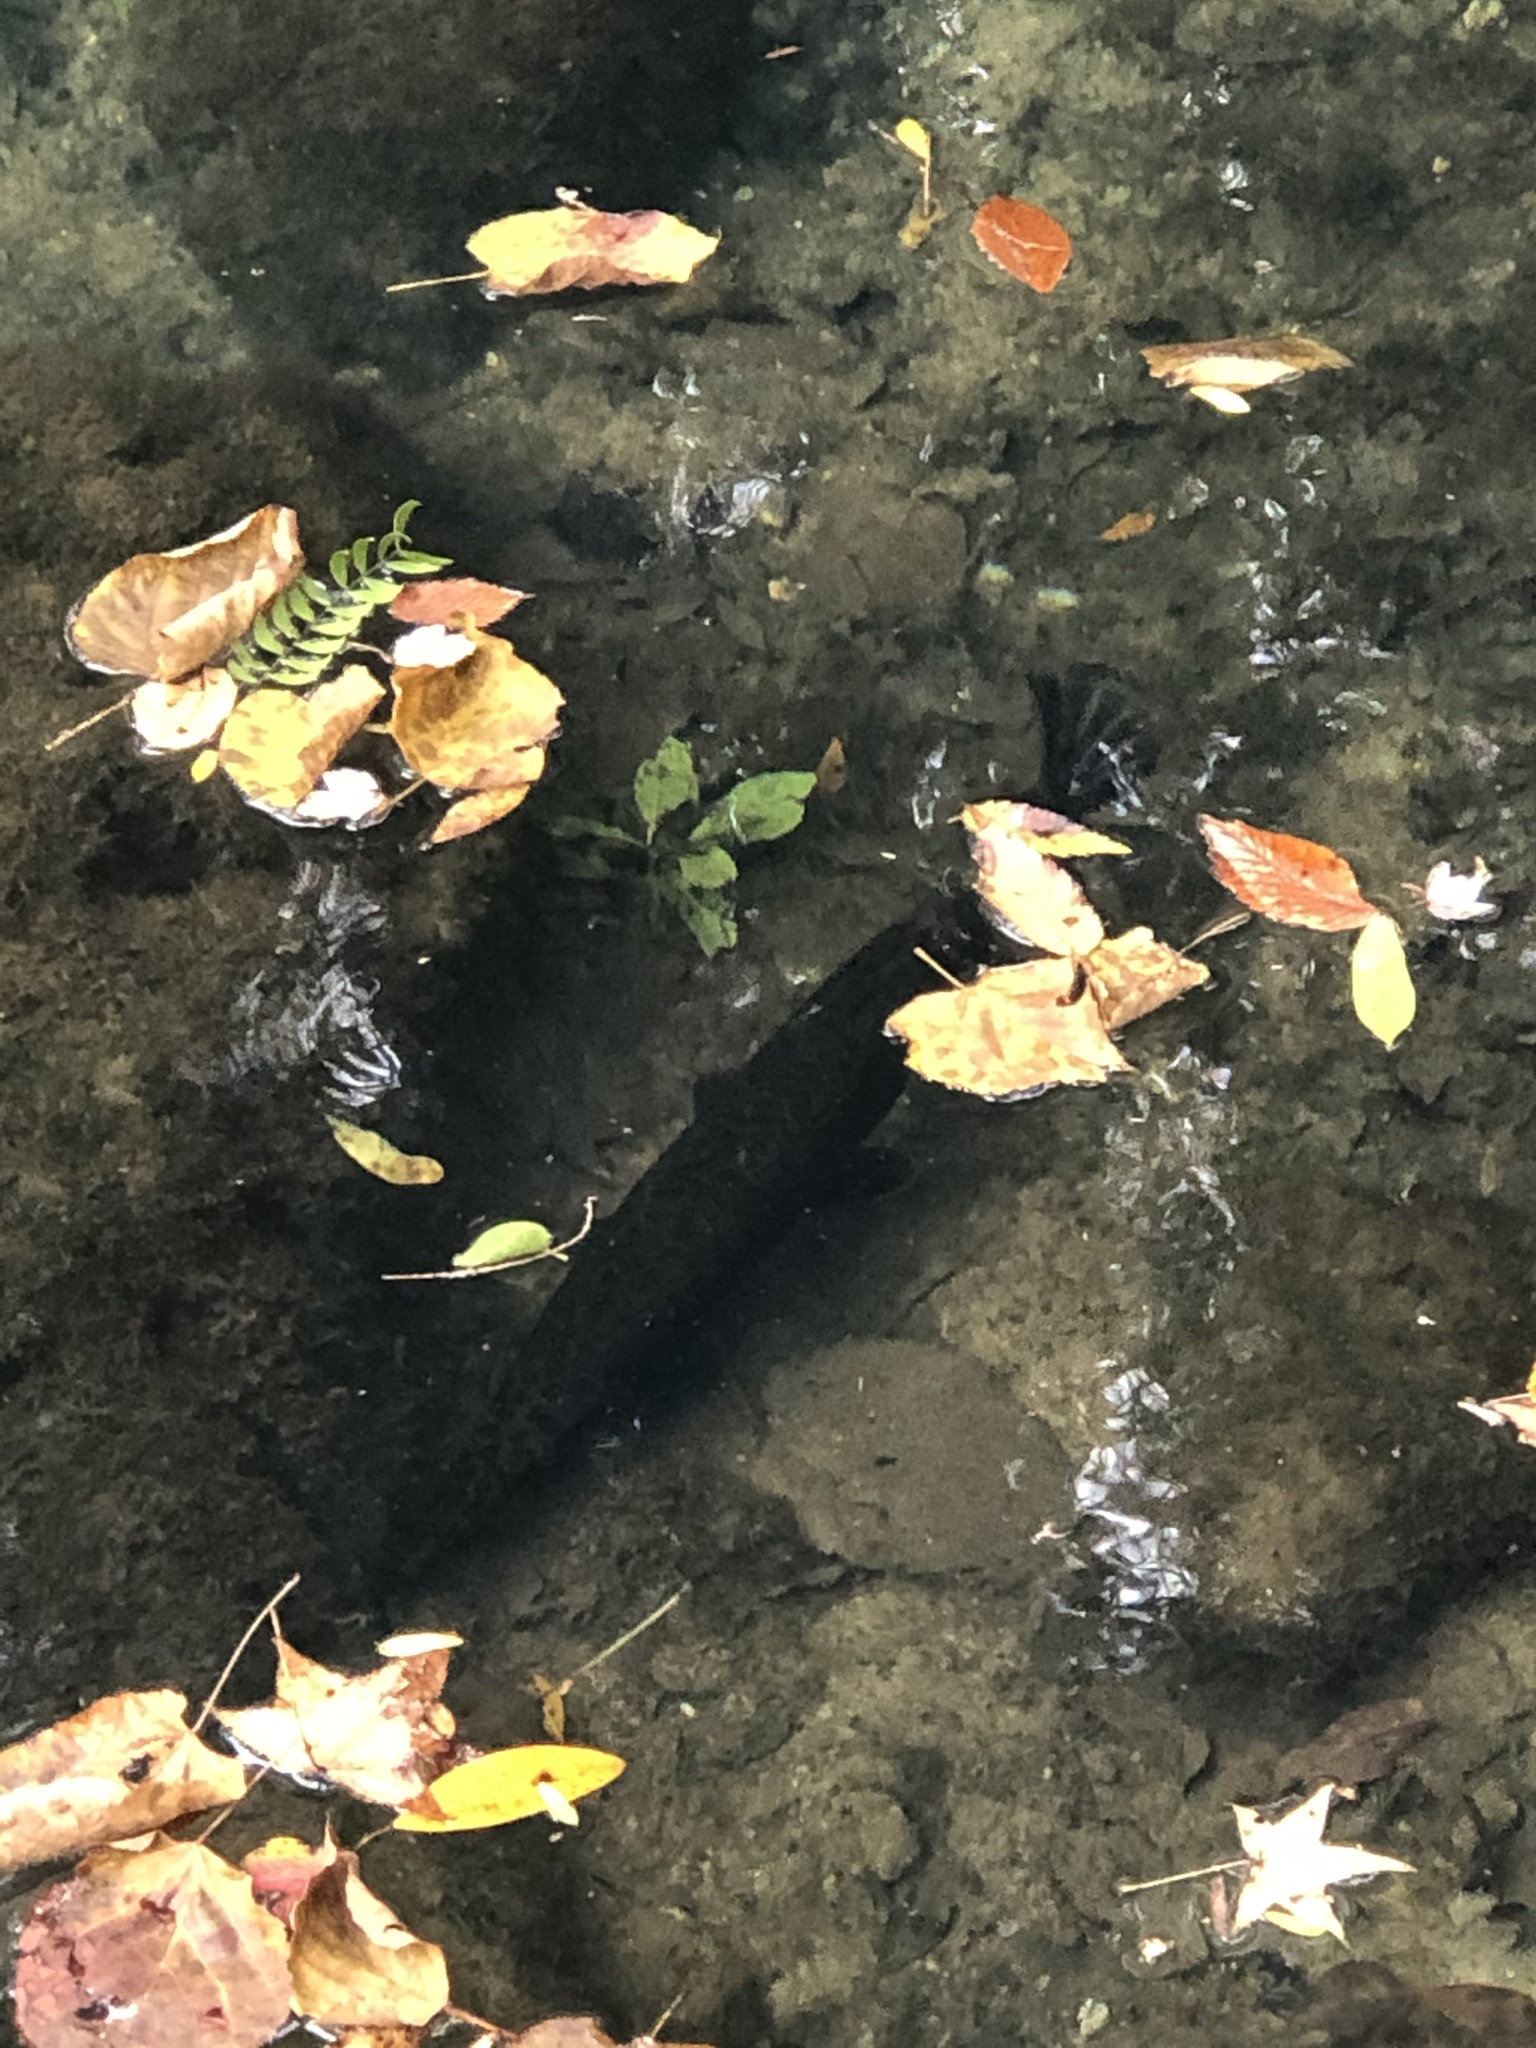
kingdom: Animalia
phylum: Chordata
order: Lepisosteiformes
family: Lepisosteidae
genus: Lepisosteus
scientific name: Lepisosteus platyrhincus
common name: Florida gar
